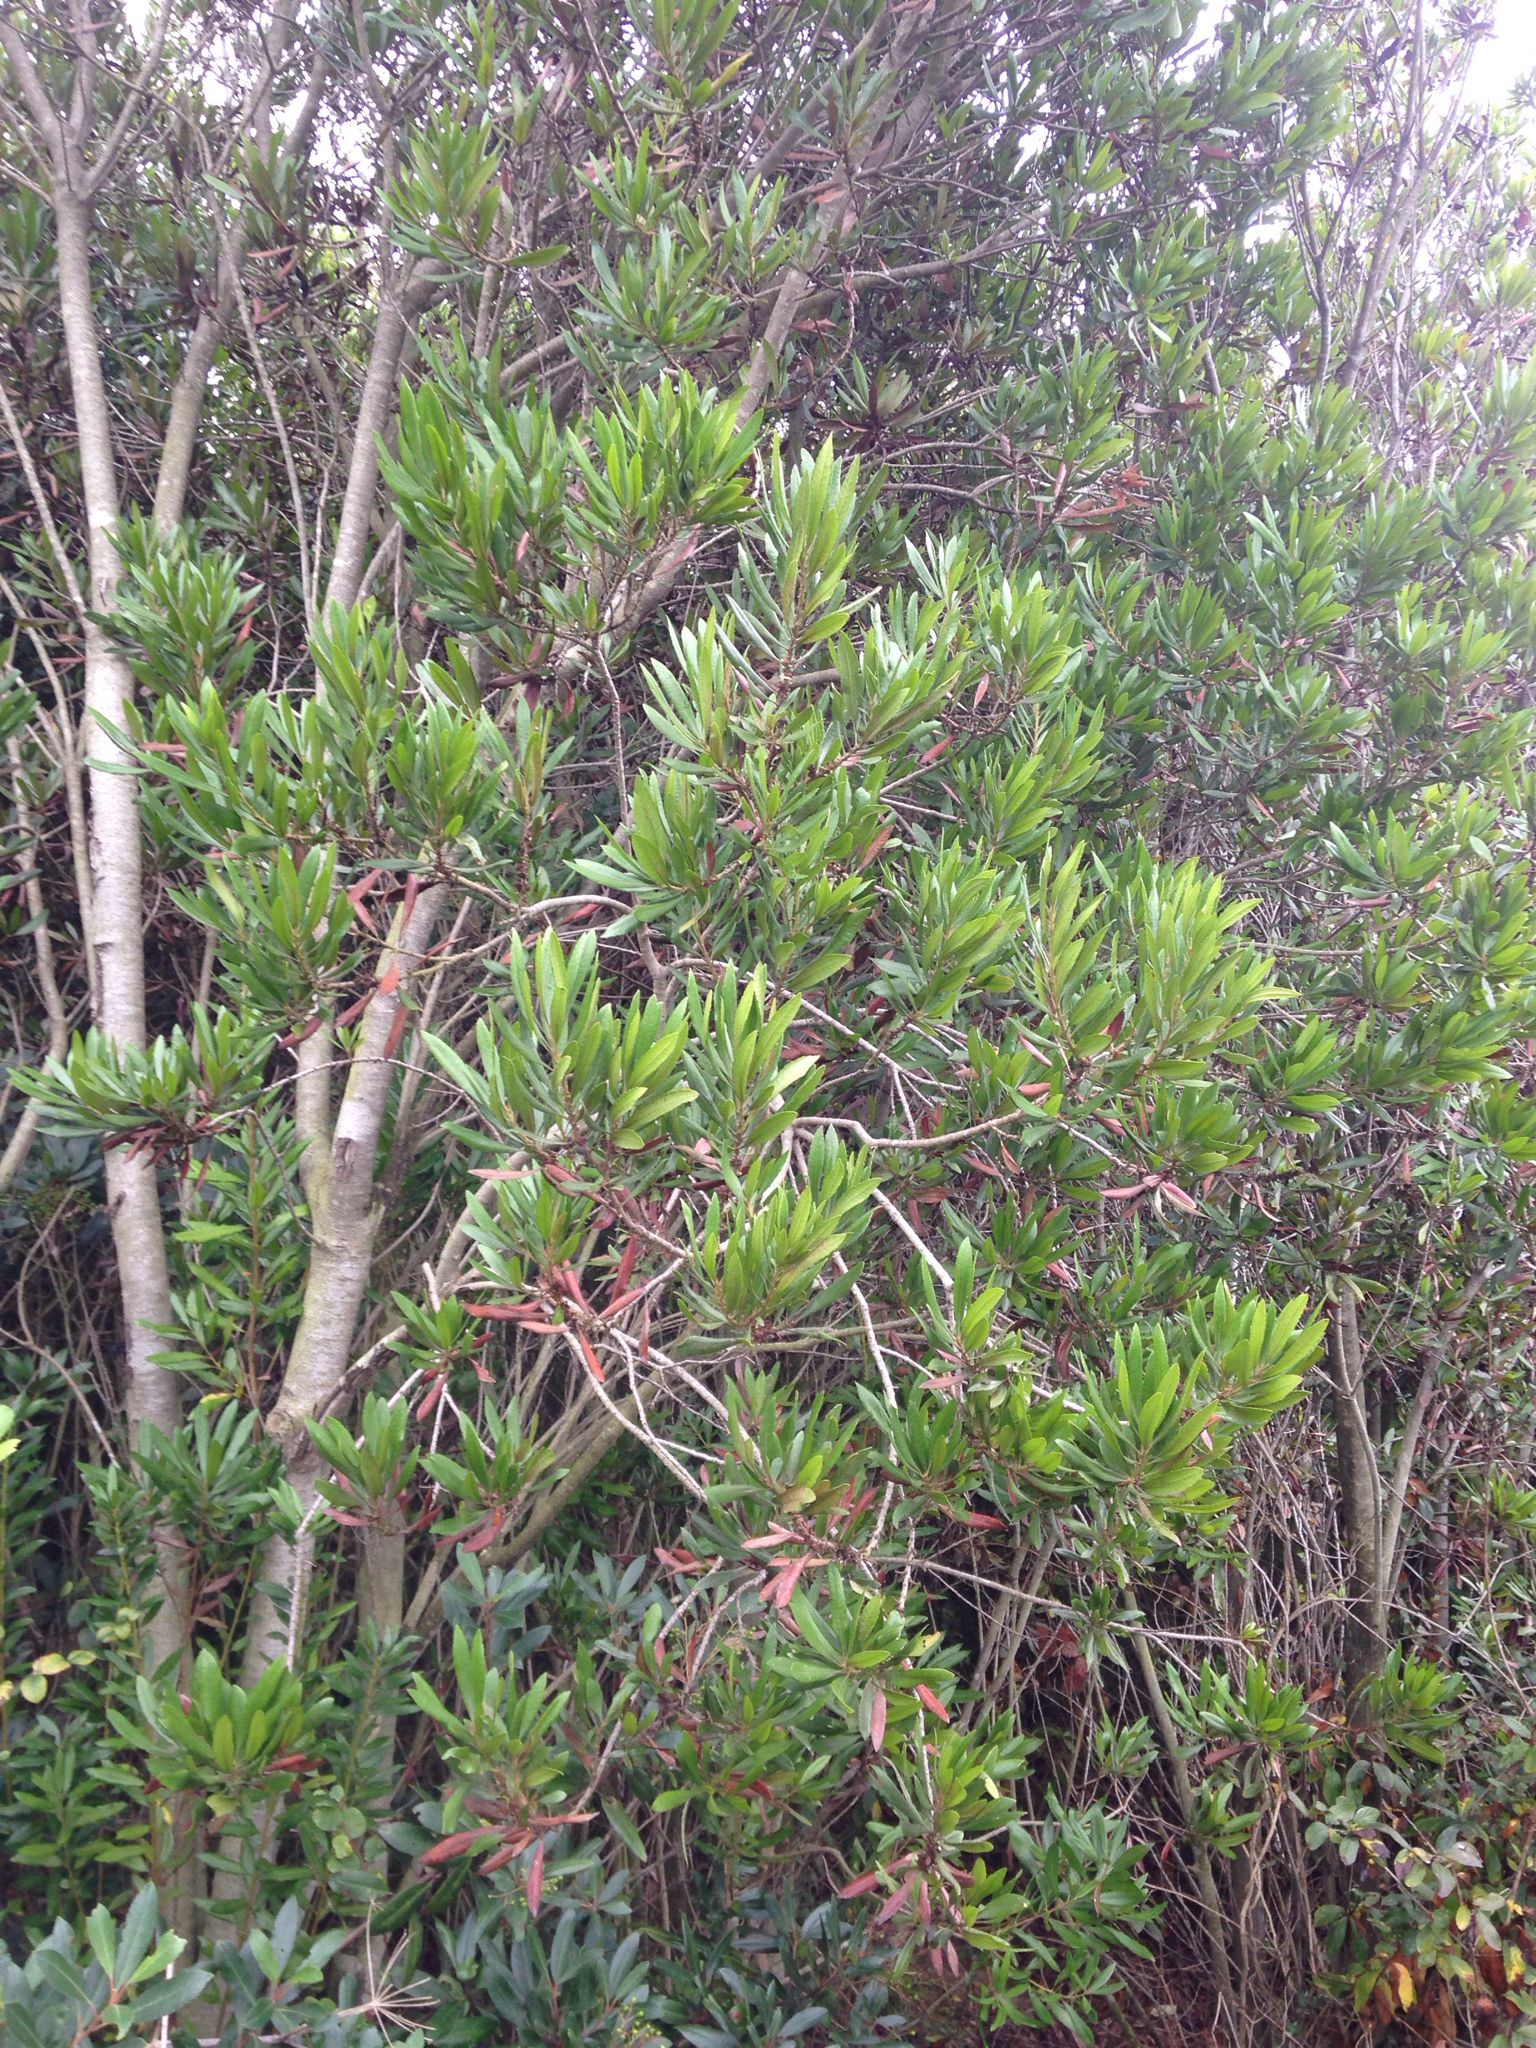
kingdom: Plantae
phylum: Tracheophyta
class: Magnoliopsida
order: Fagales
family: Myricaceae
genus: Morella
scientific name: Morella californica
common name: California wax-myrtle
